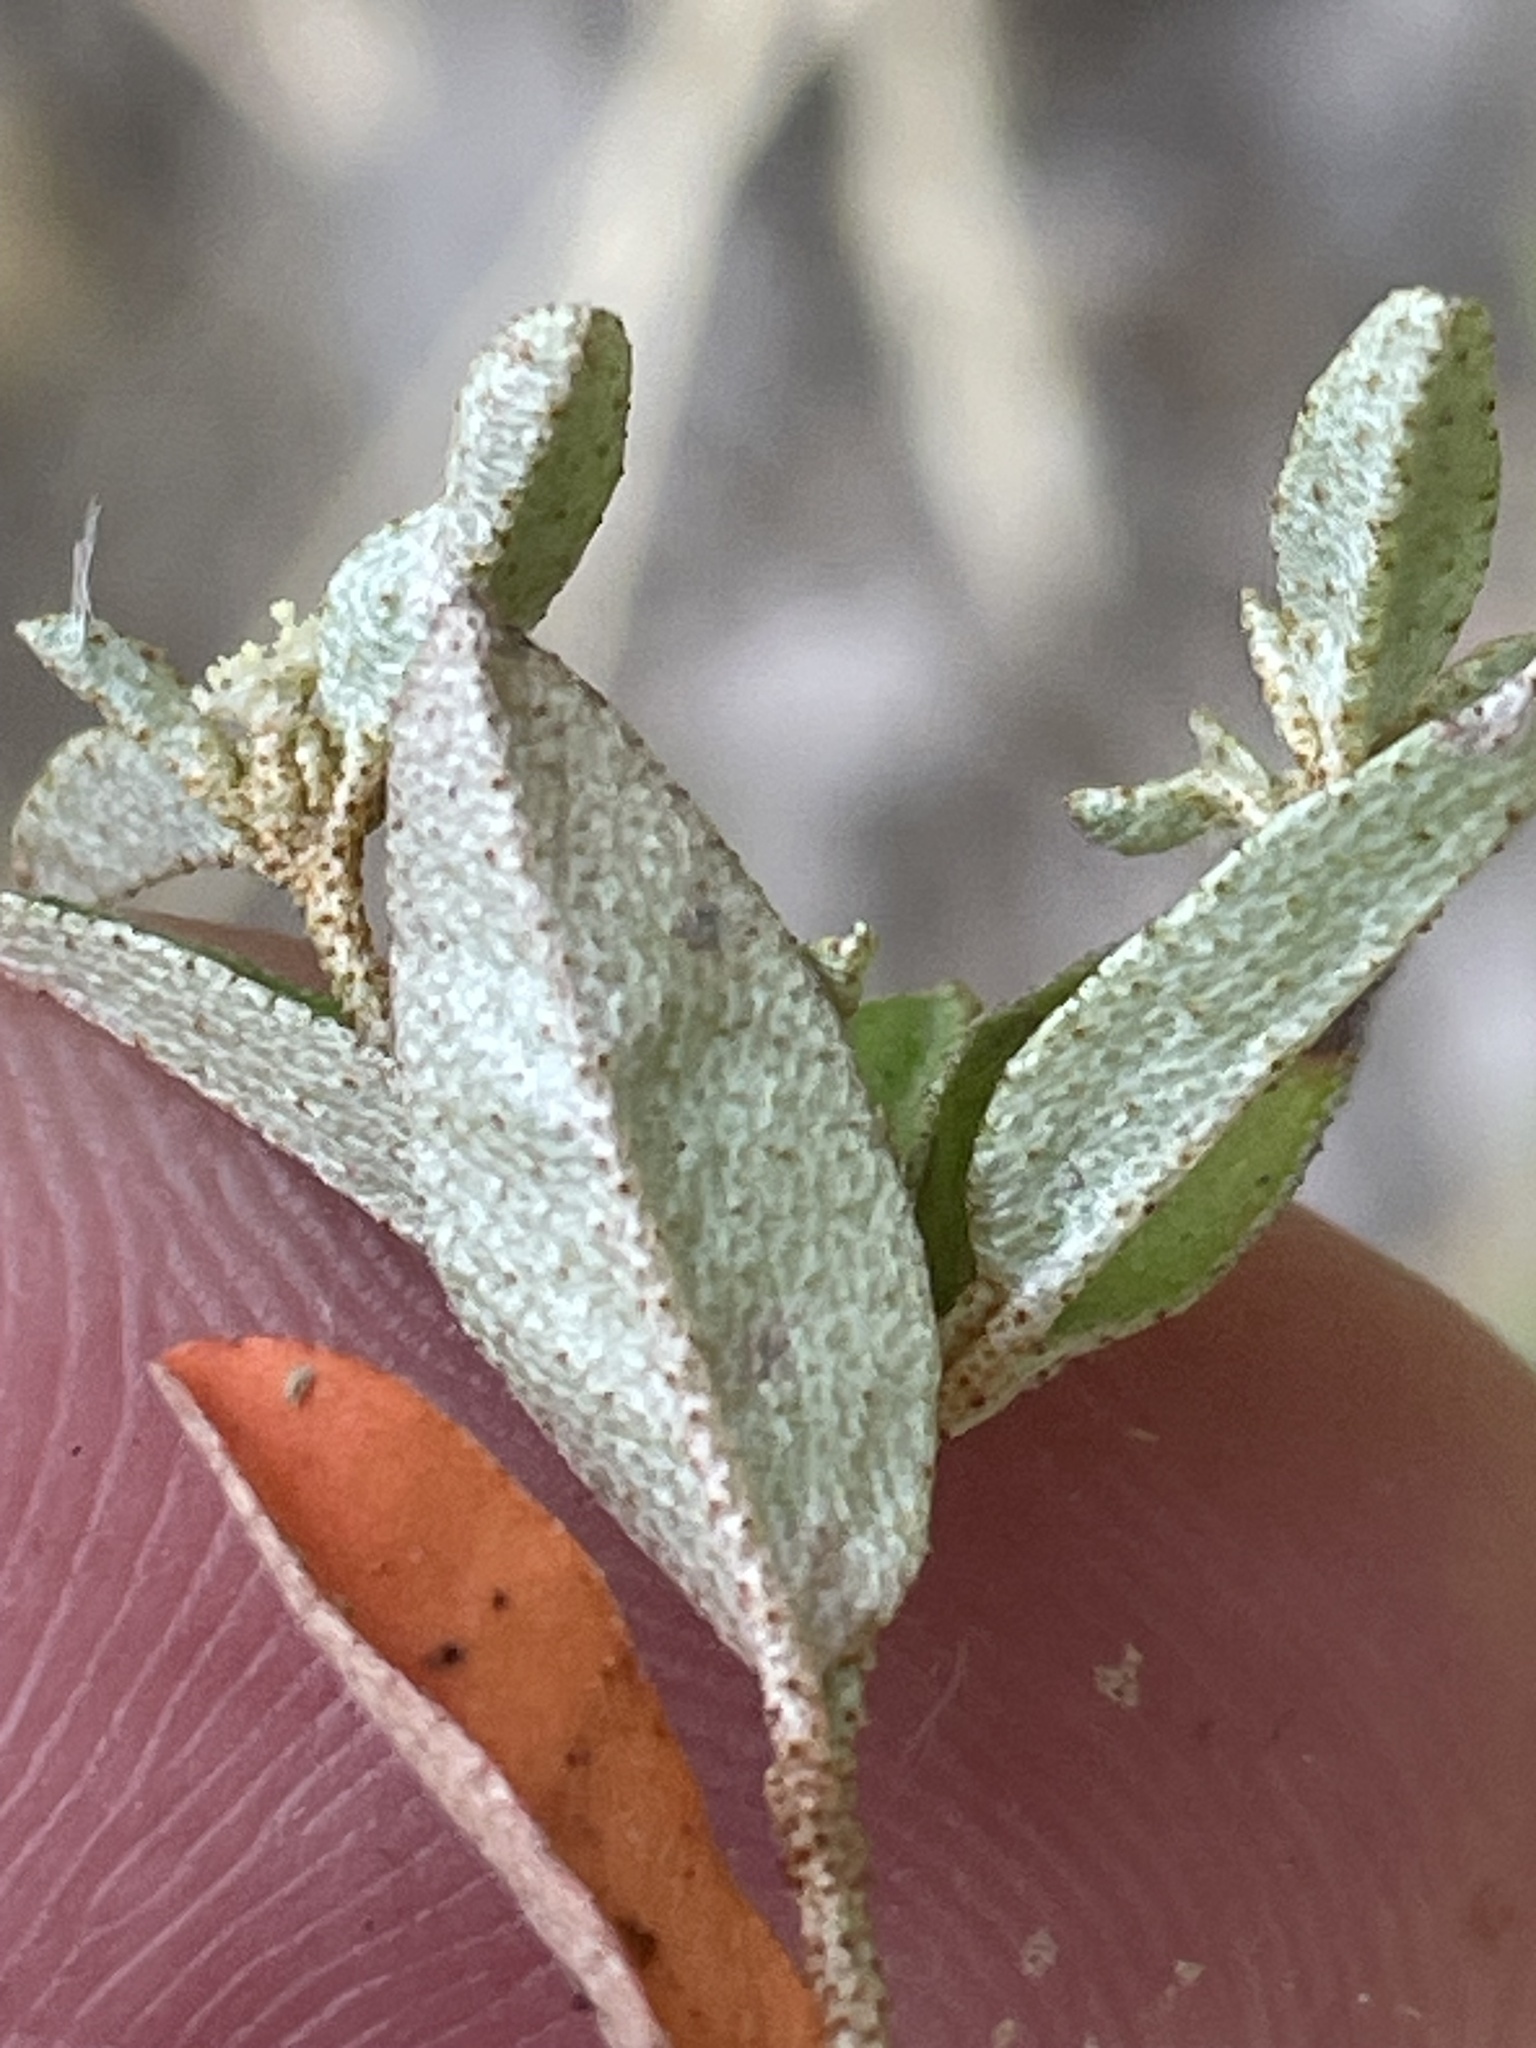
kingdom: Plantae
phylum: Tracheophyta
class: Magnoliopsida
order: Malpighiales
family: Euphorbiaceae
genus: Croton
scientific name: Croton michauxii
